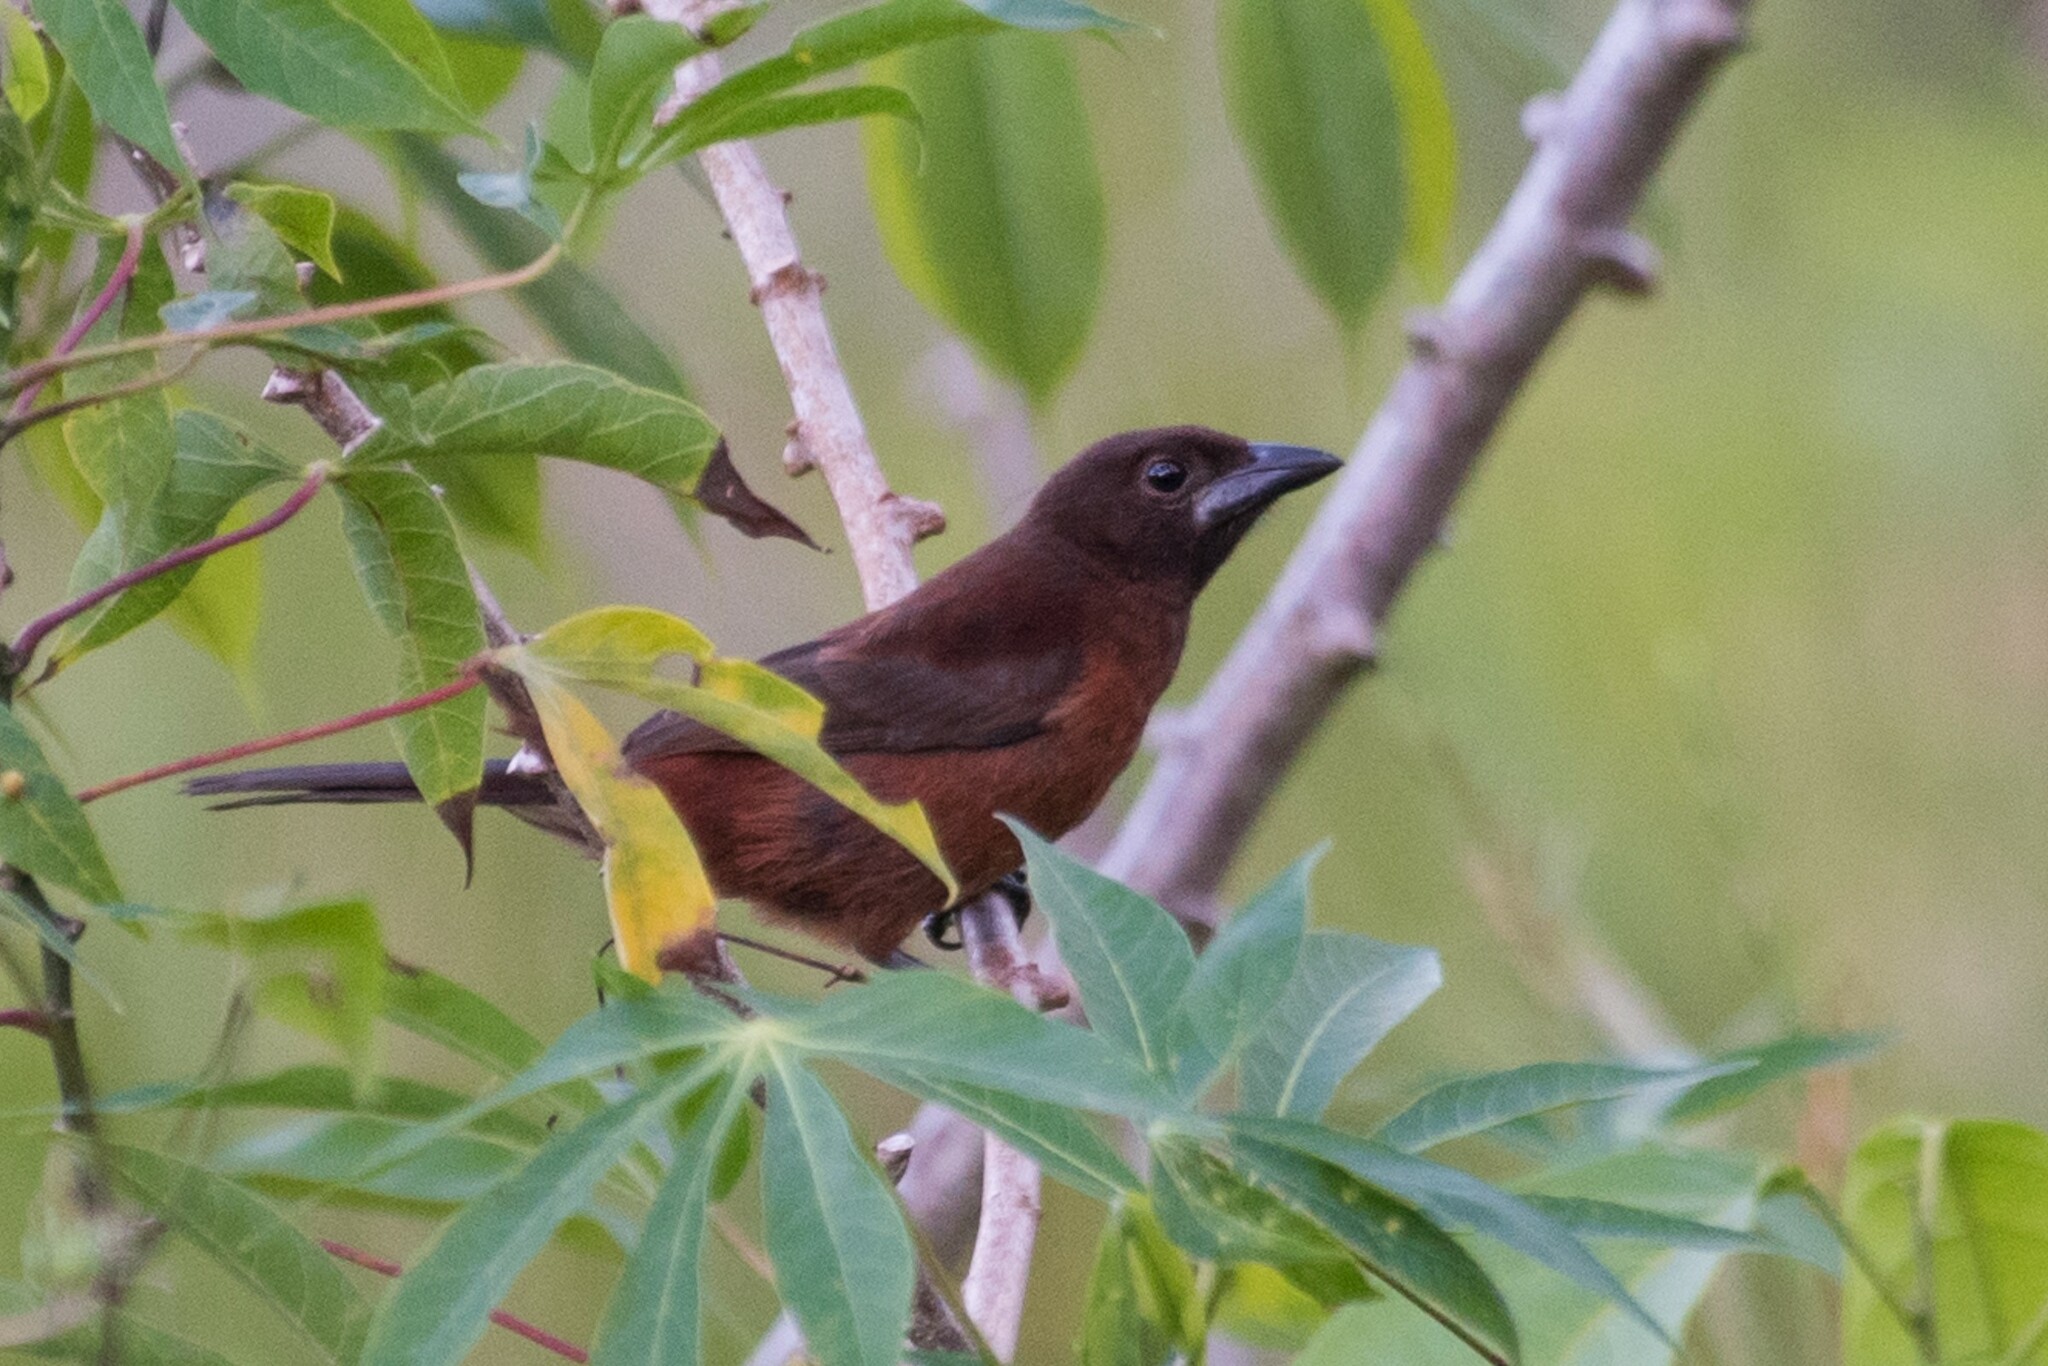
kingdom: Animalia
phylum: Chordata
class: Aves
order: Passeriformes
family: Thraupidae
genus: Ramphocelus
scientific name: Ramphocelus carbo
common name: Silver-beaked tanager
